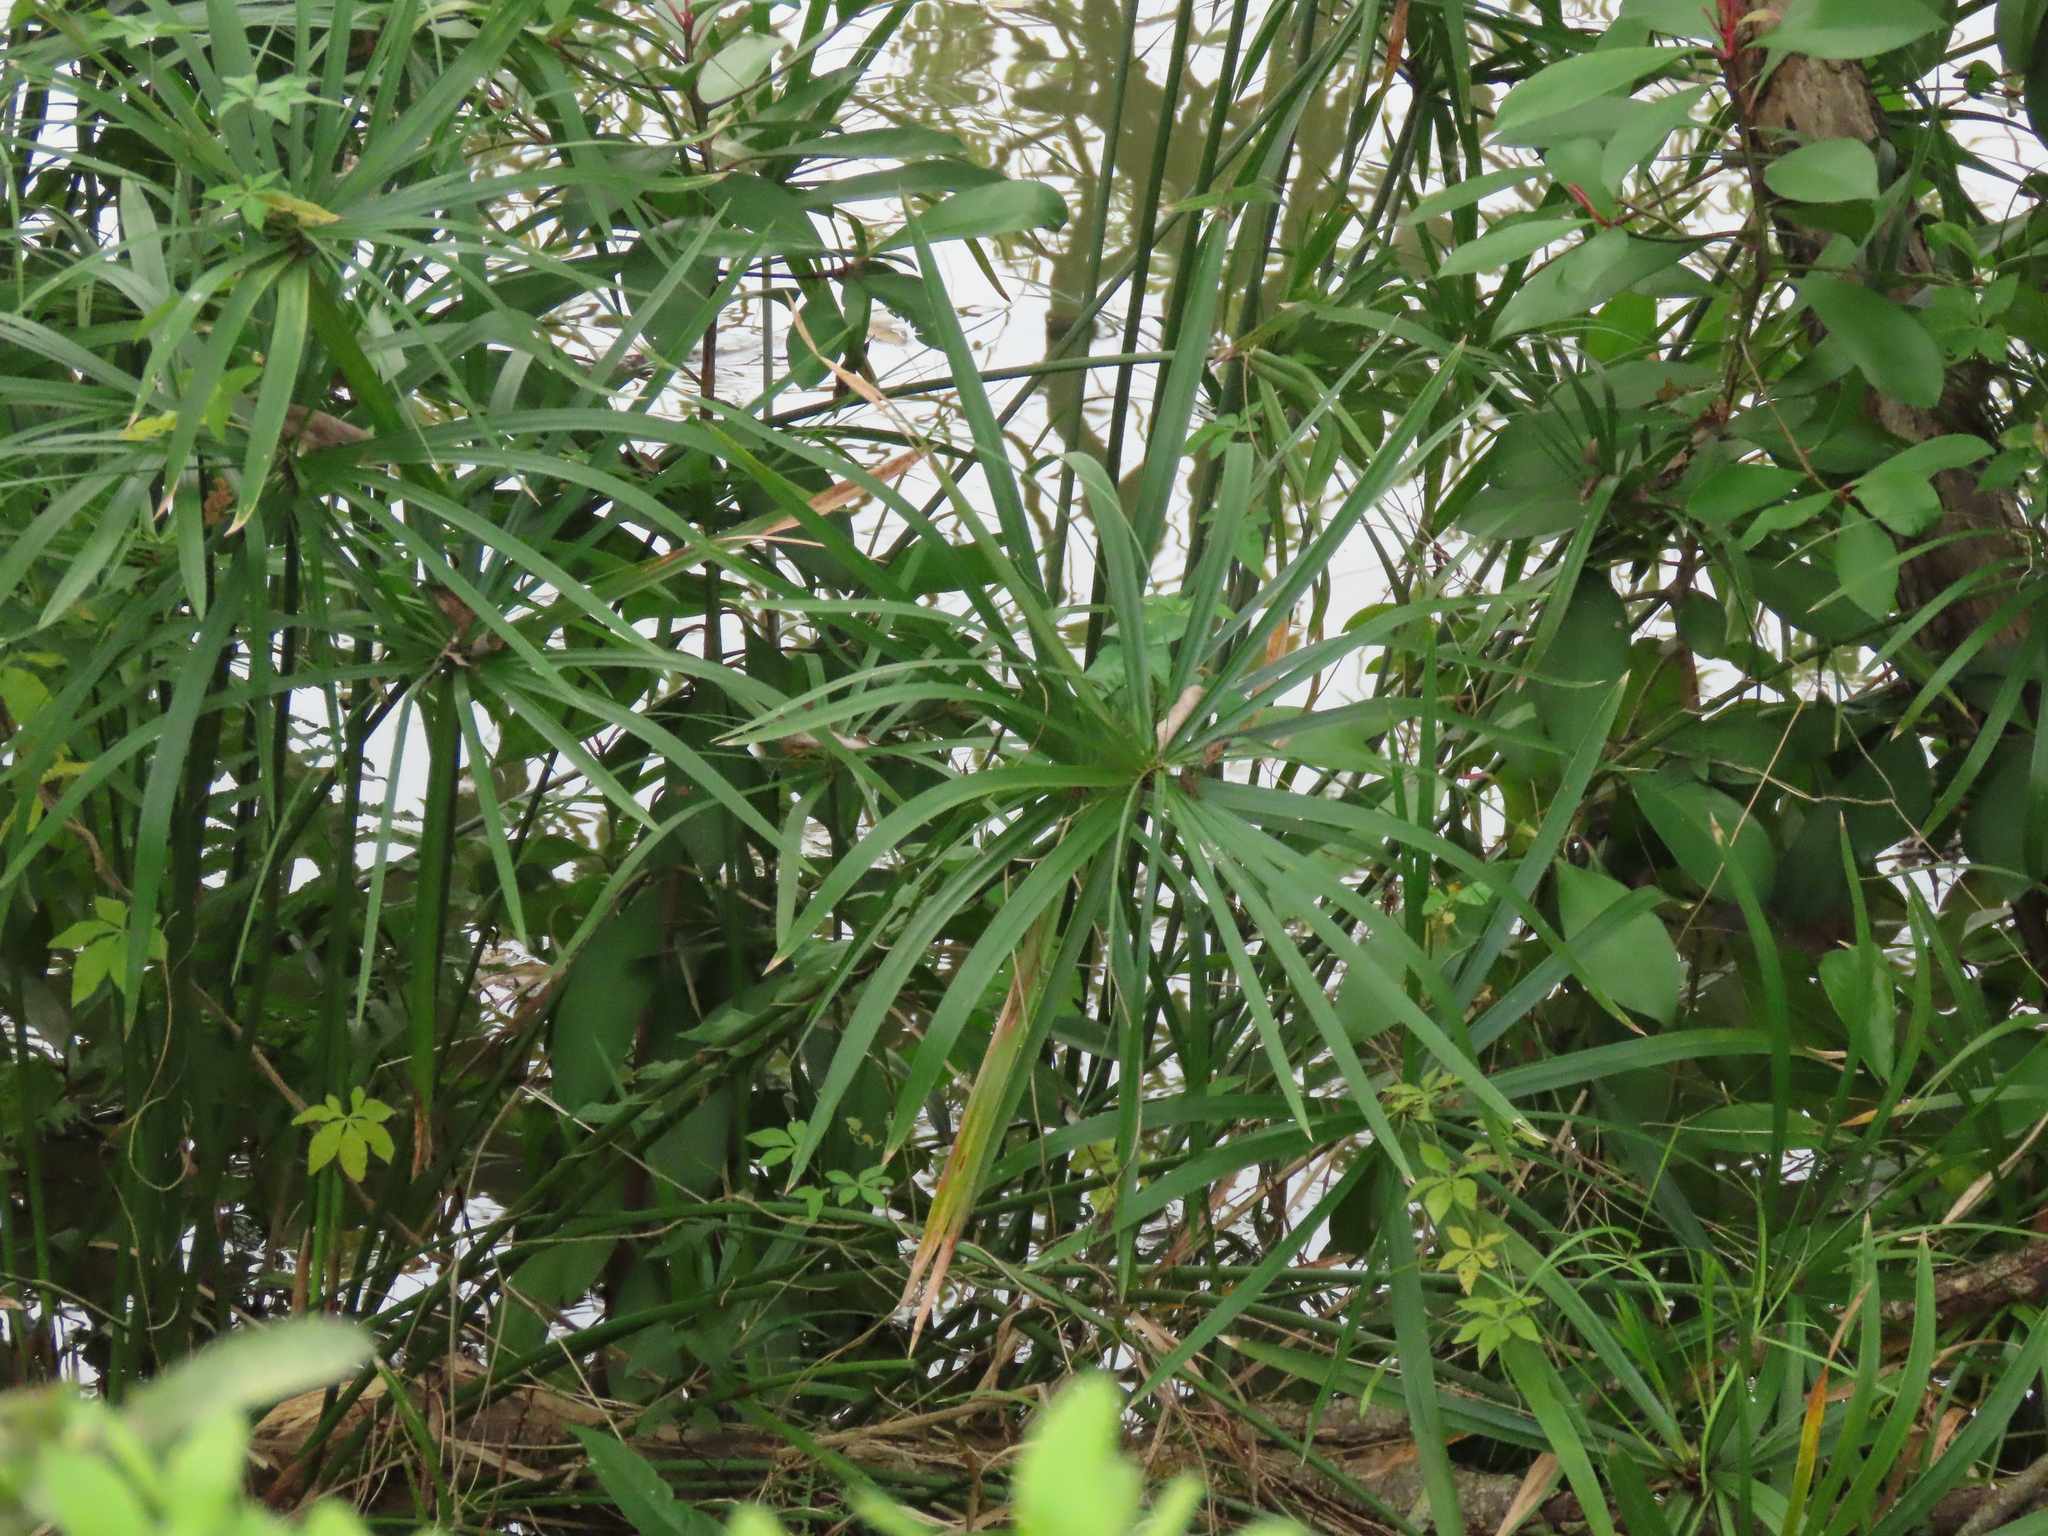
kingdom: Plantae
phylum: Tracheophyta
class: Liliopsida
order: Poales
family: Cyperaceae
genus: Cyperus
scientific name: Cyperus alternifolius
